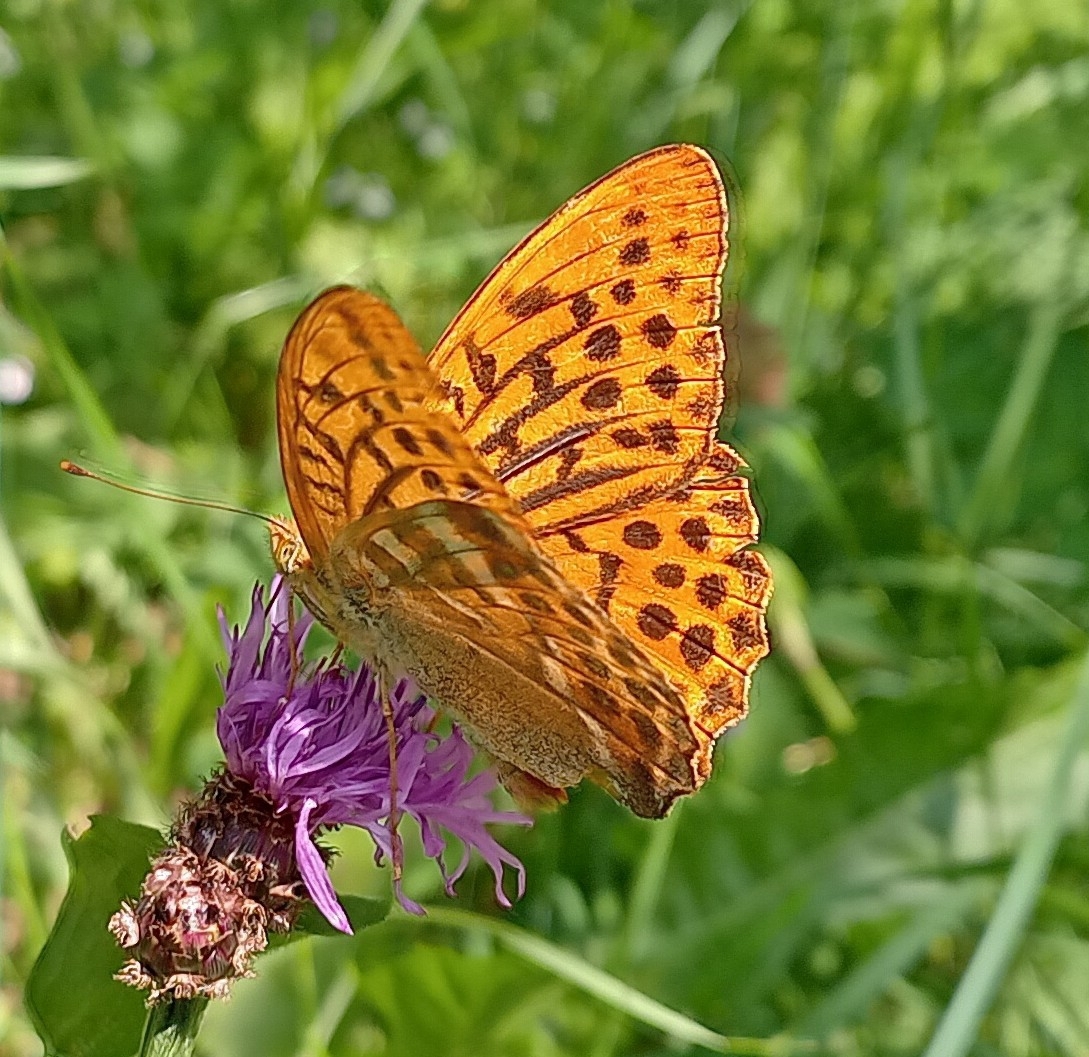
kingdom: Animalia
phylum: Arthropoda
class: Insecta
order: Lepidoptera
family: Nymphalidae
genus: Argynnis
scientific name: Argynnis paphia
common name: Silver-washed fritillary
